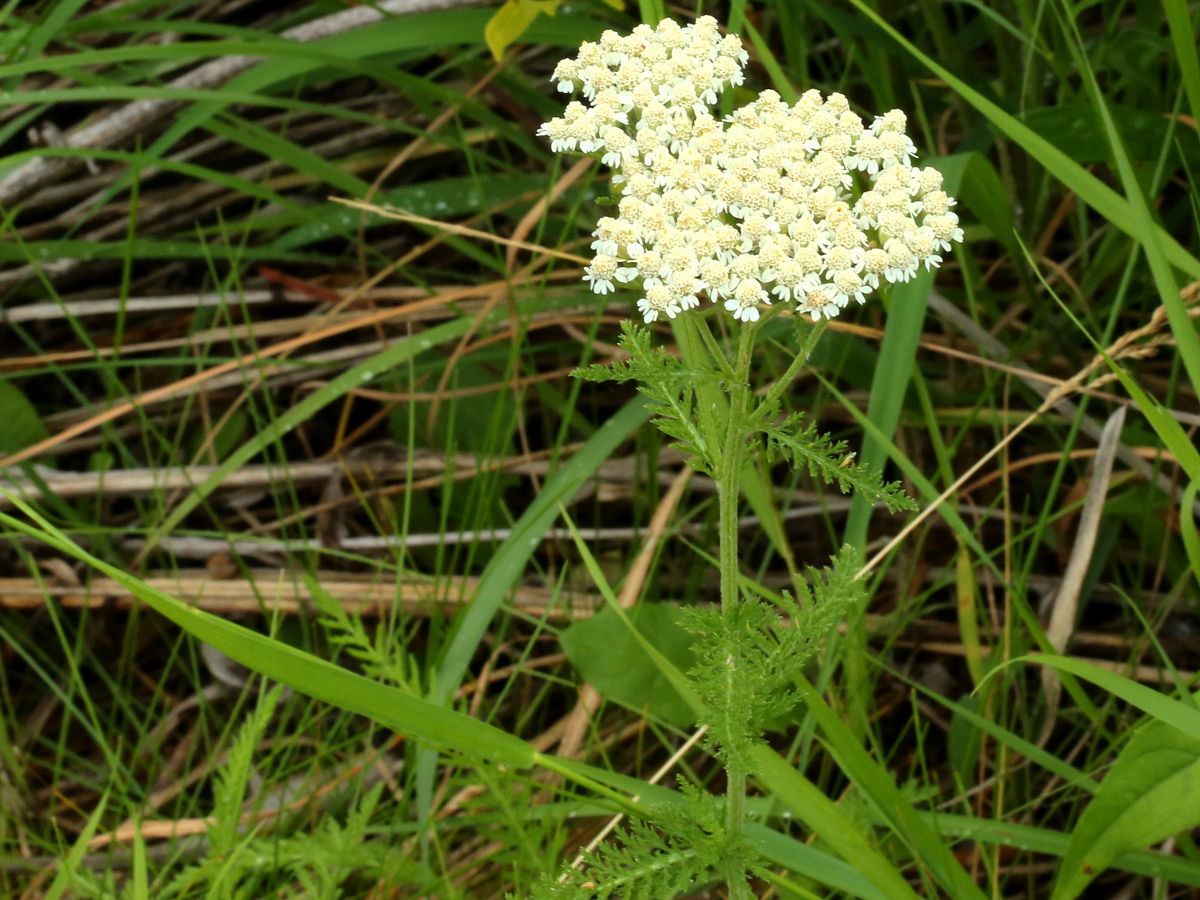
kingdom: Plantae
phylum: Tracheophyta
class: Magnoliopsida
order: Asterales
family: Asteraceae
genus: Achillea
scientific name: Achillea millefolium
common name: Yarrow
